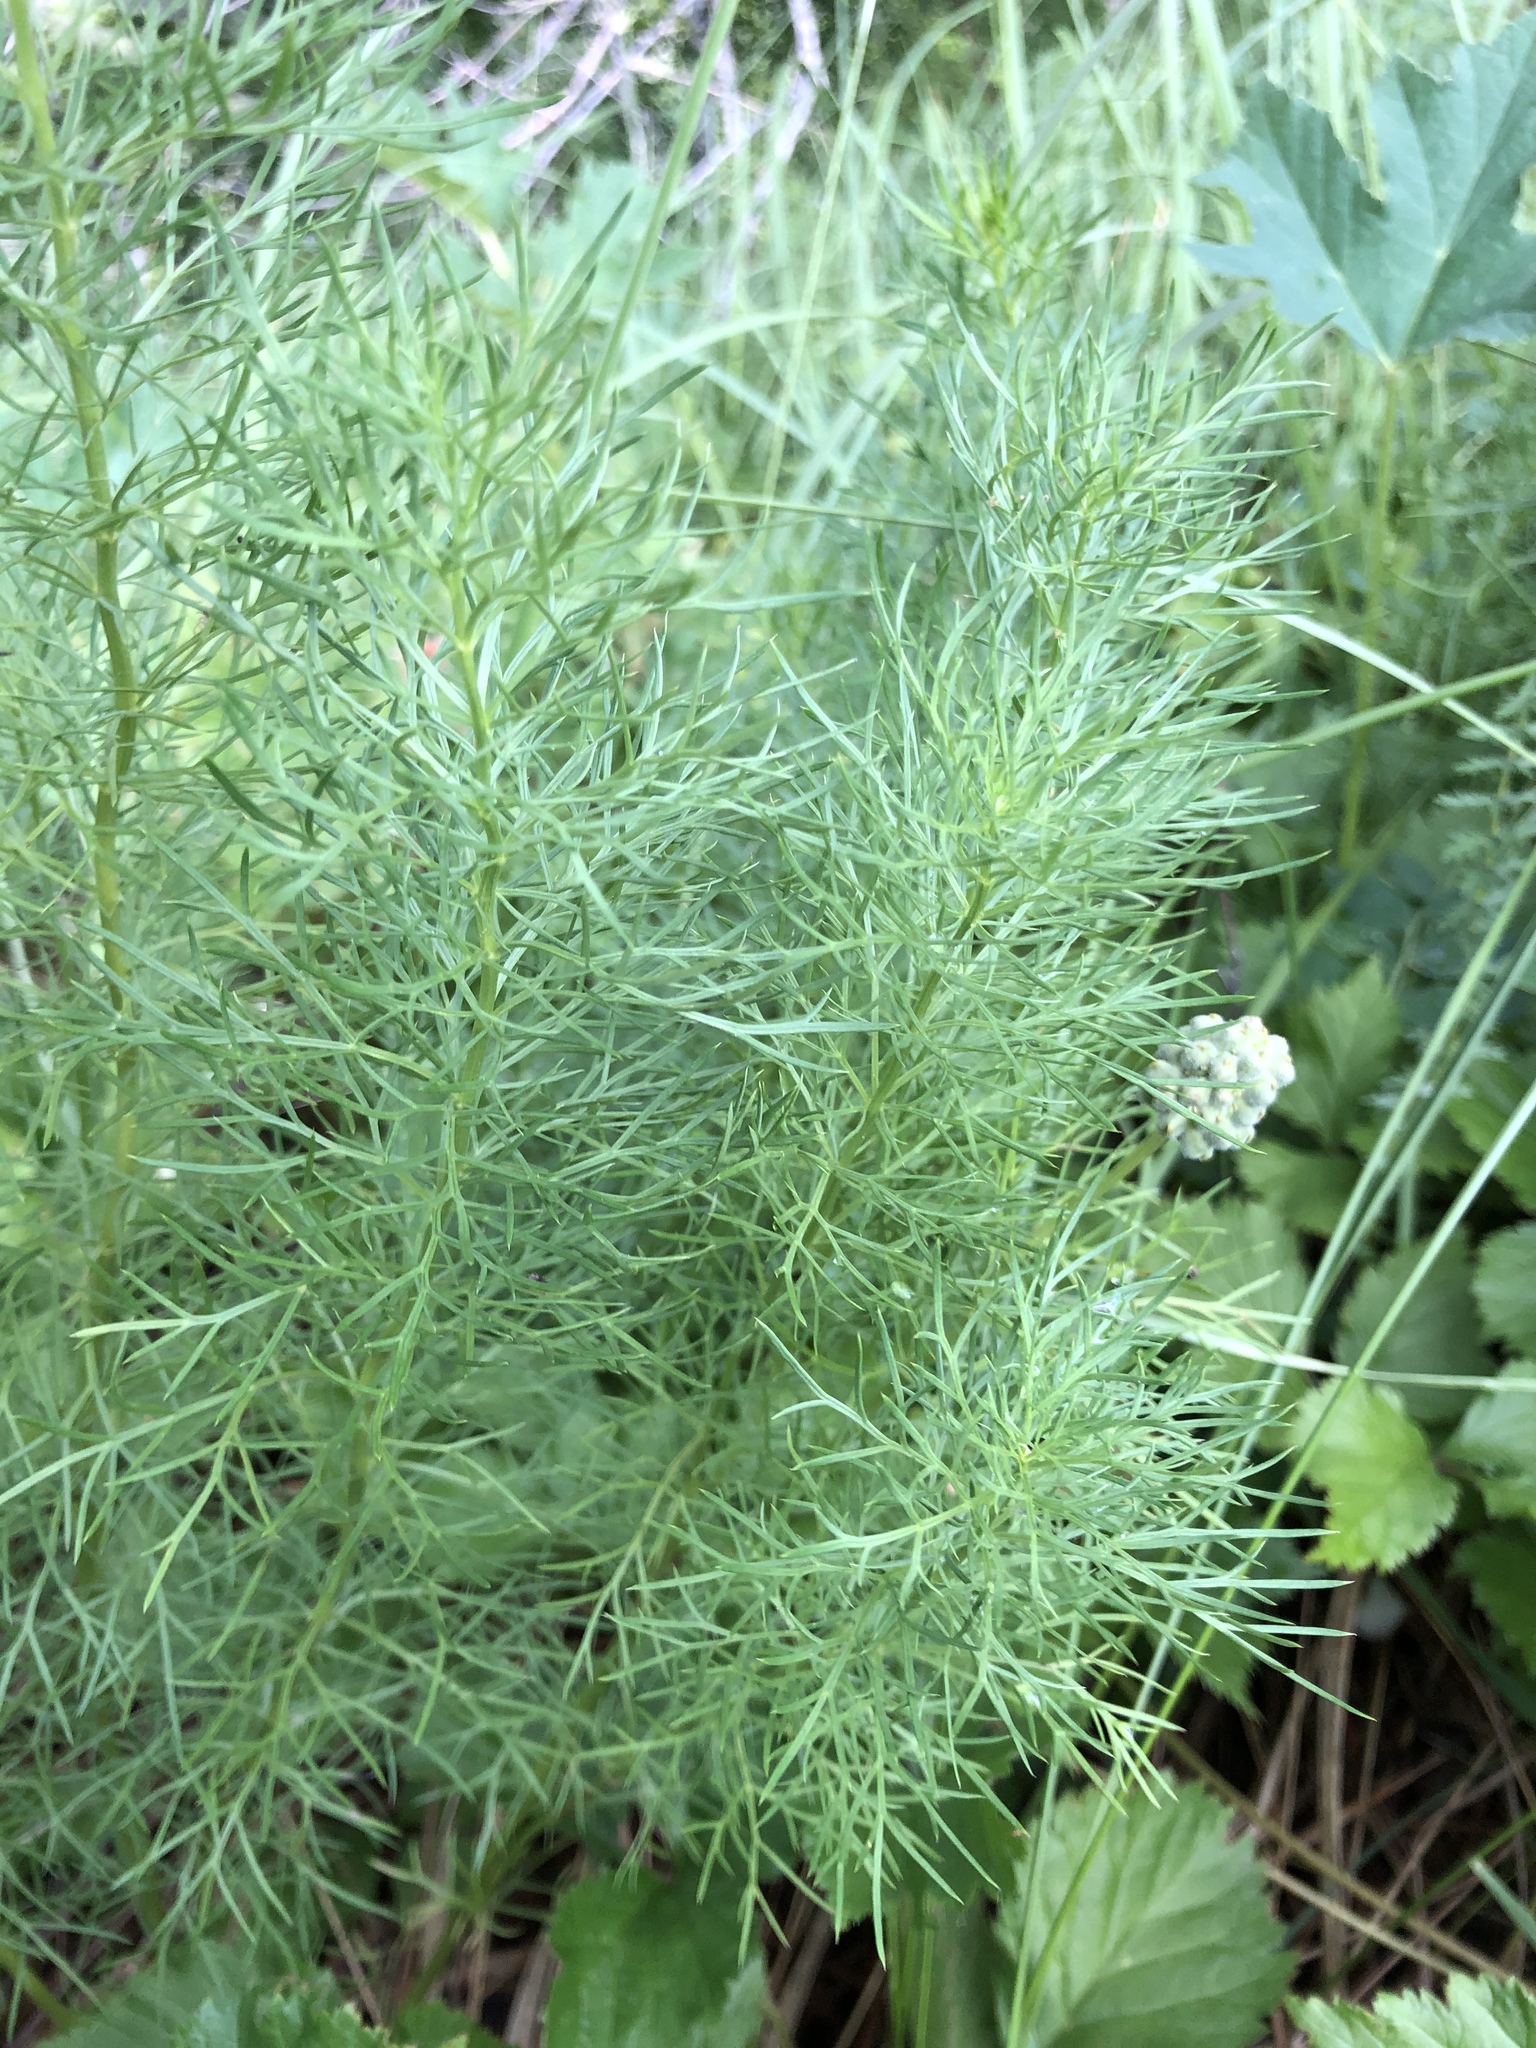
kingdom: Plantae
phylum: Tracheophyta
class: Magnoliopsida
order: Ranunculales
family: Ranunculaceae
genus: Adonis
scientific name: Adonis vernalis
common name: Yellow pheasants-eye
